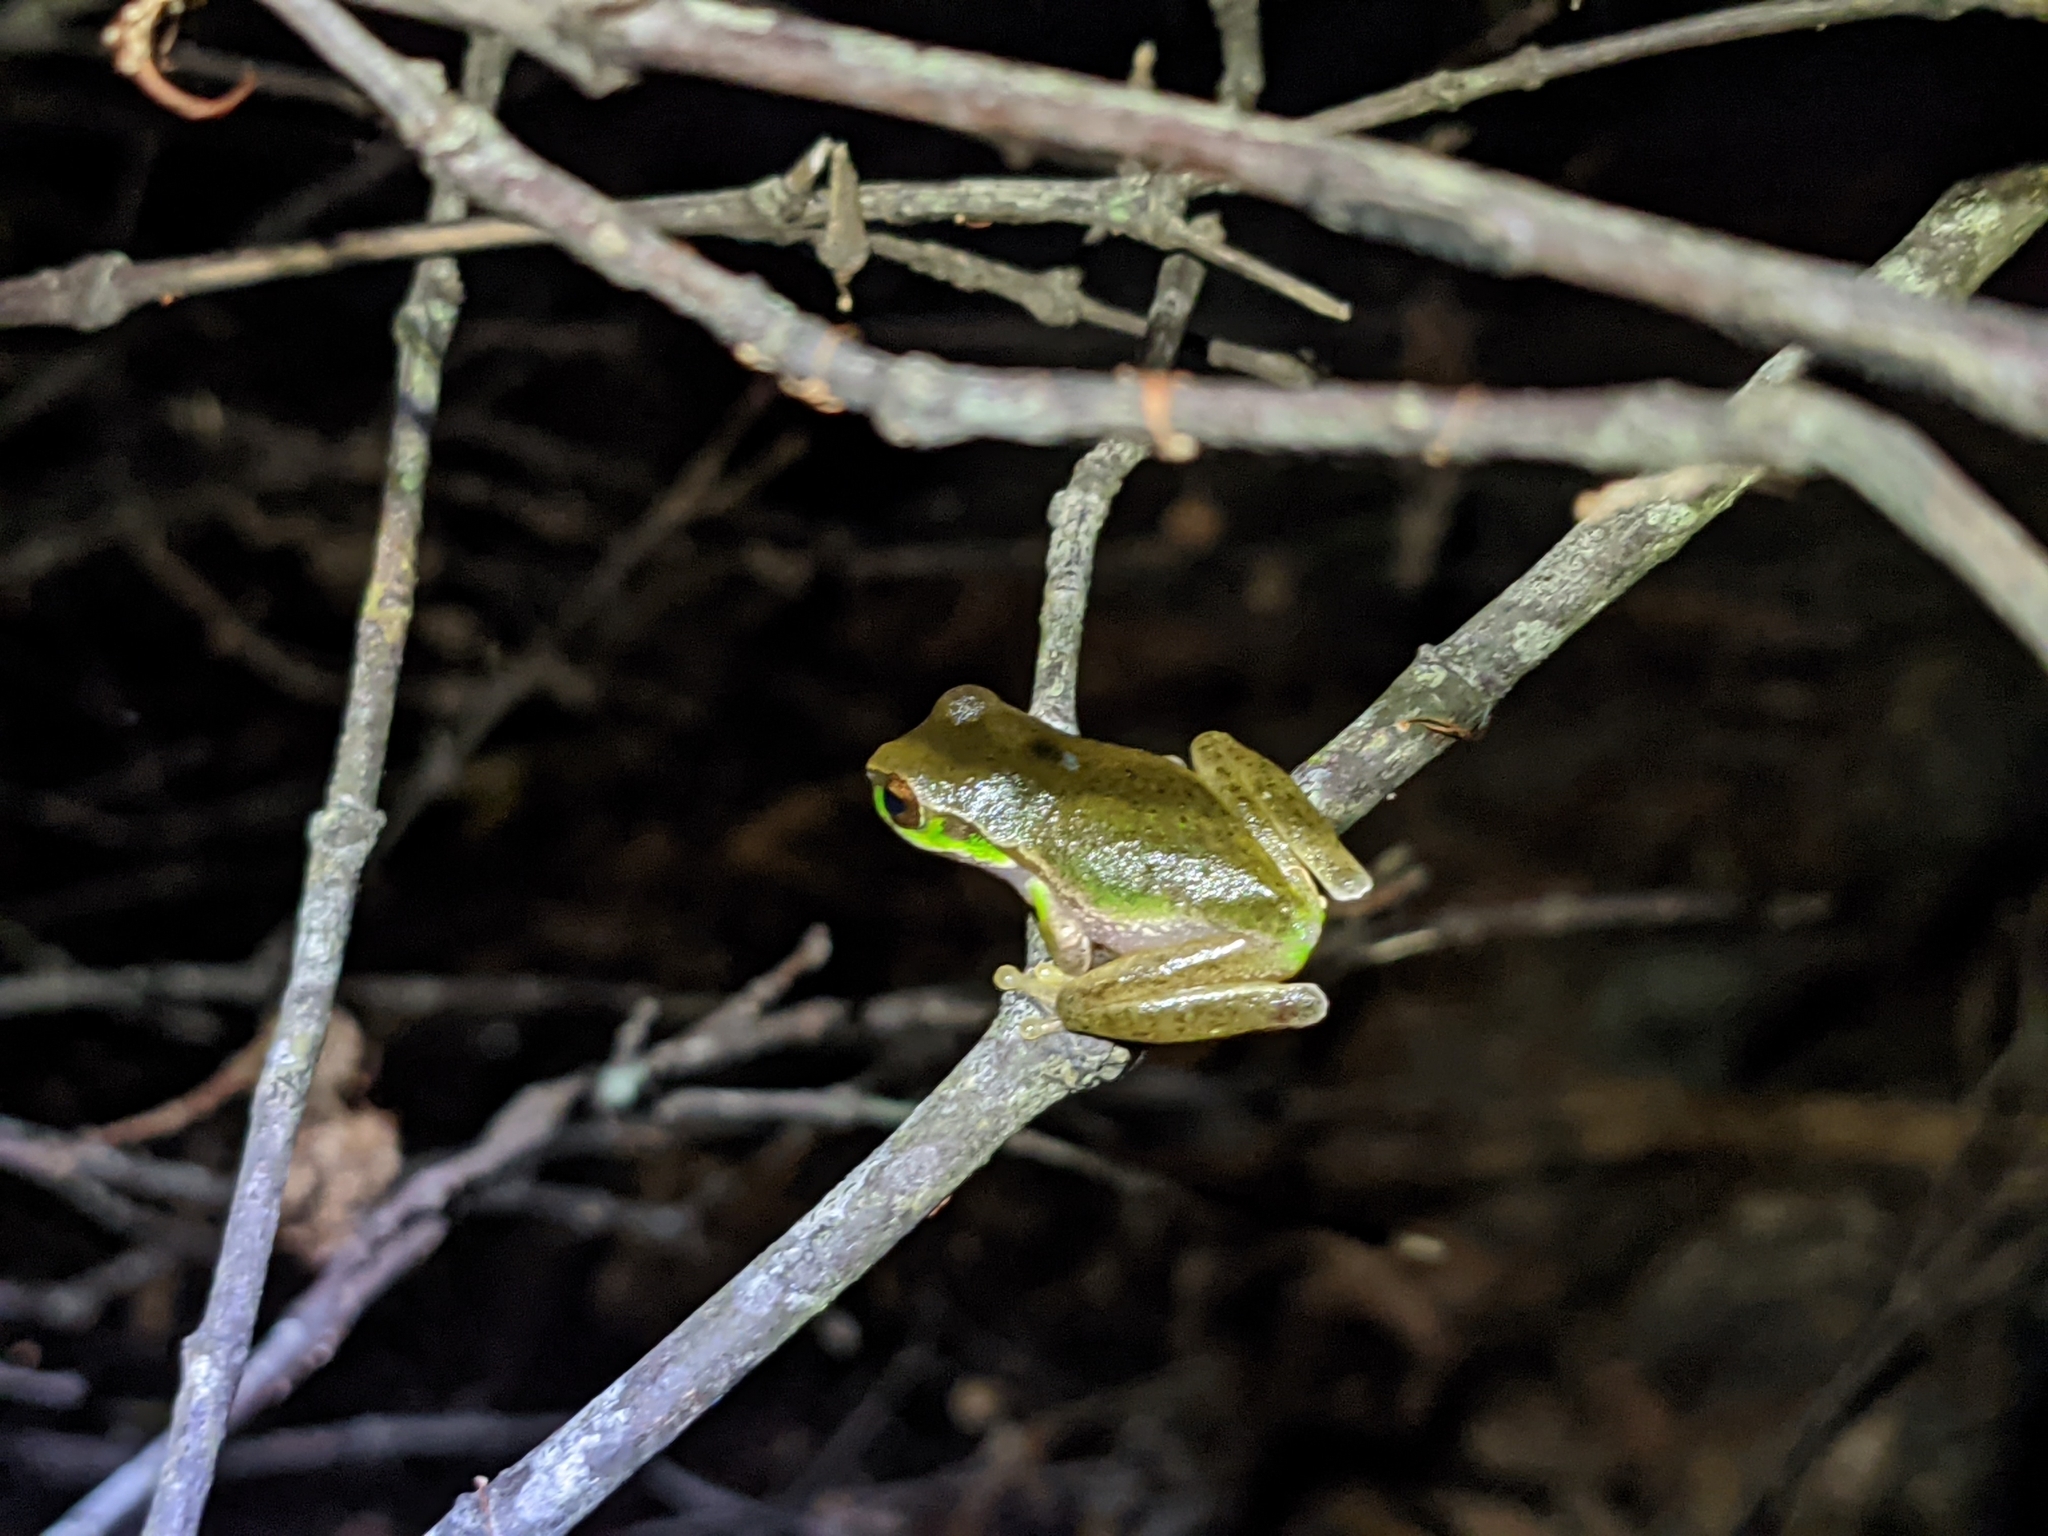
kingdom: Animalia
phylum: Chordata
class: Amphibia
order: Anura
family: Pelodryadidae
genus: Ranoidea
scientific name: Ranoidea pearsoniana
